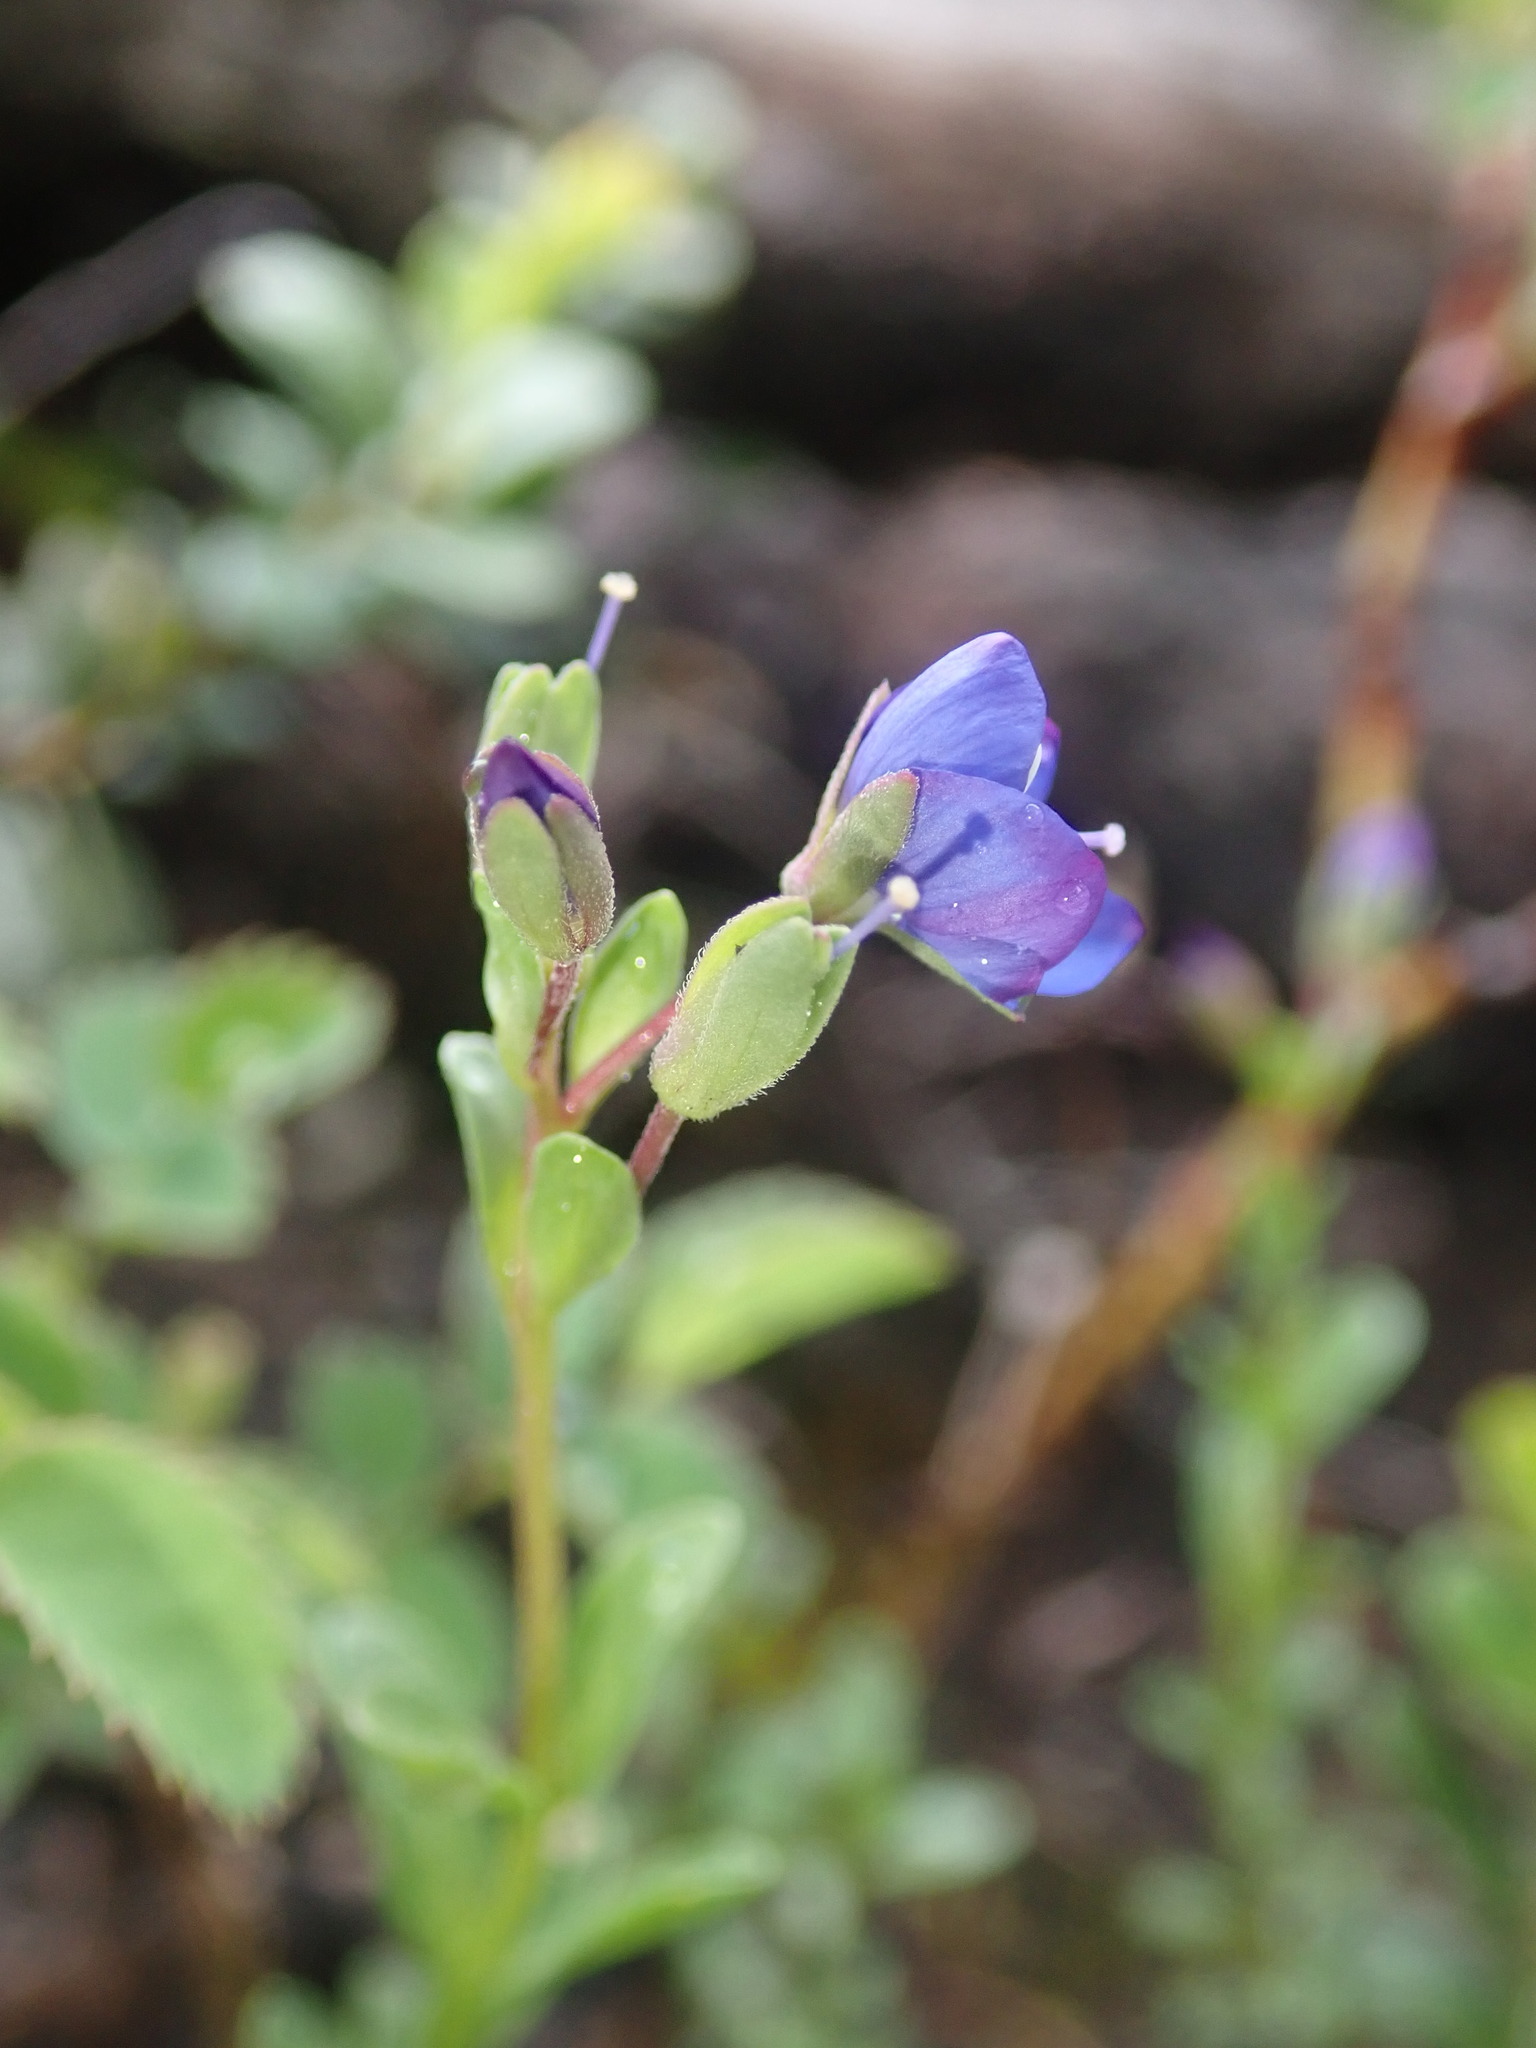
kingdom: Plantae
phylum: Tracheophyta
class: Magnoliopsida
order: Lamiales
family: Plantaginaceae
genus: Veronica
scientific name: Veronica fruticans
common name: Rock speedwell
